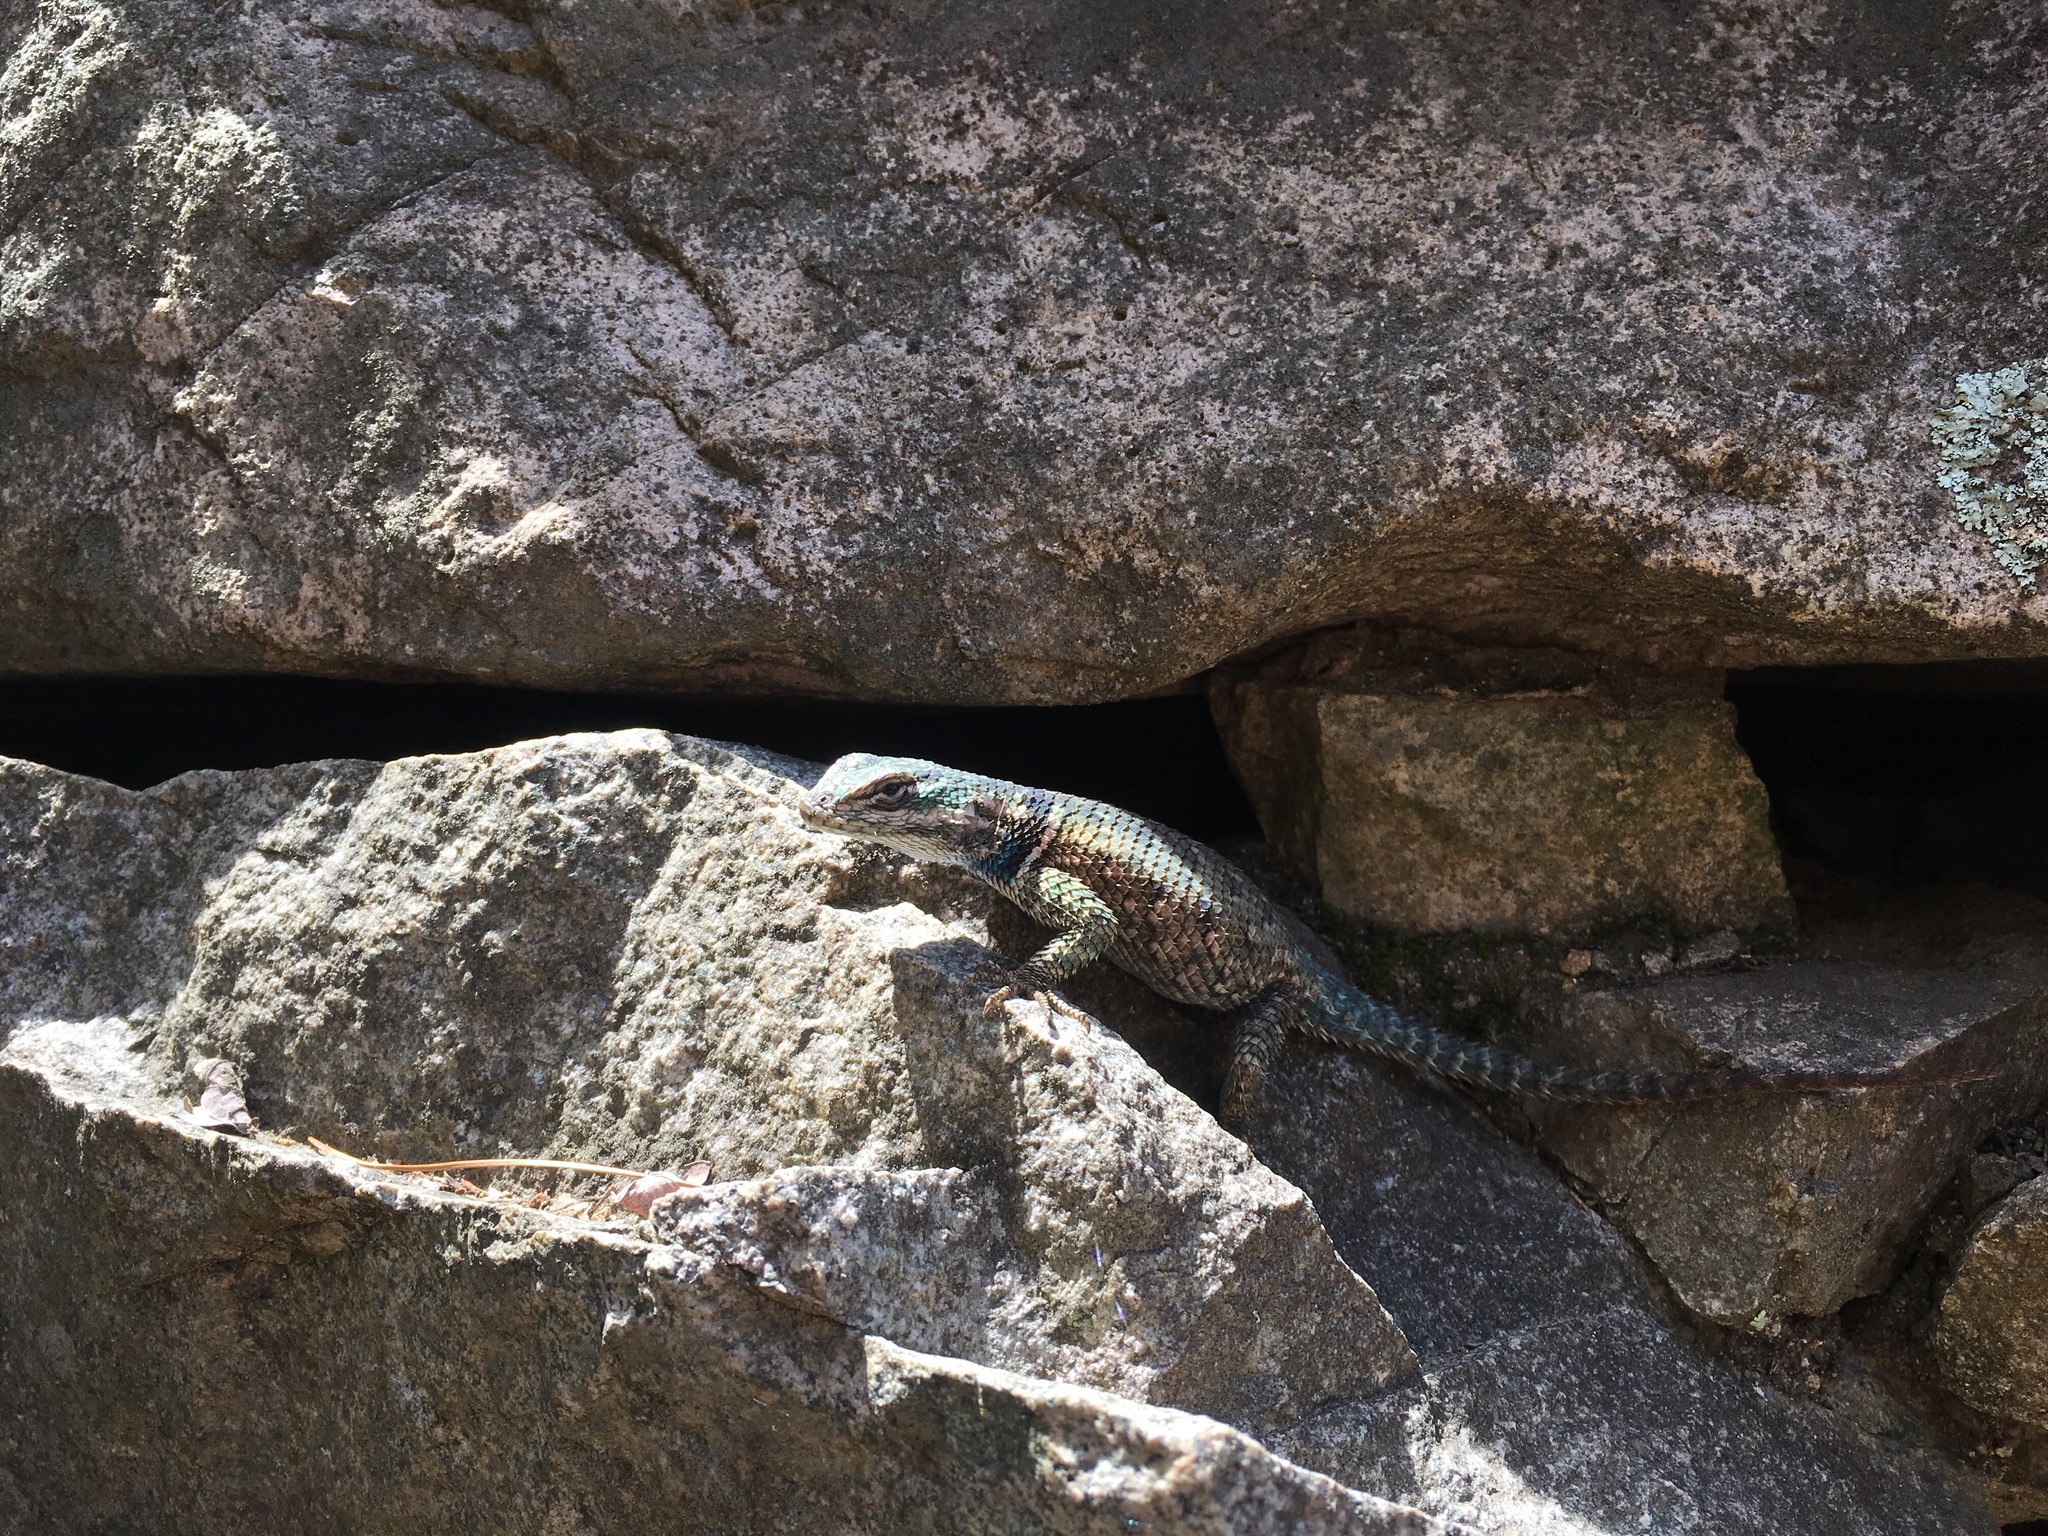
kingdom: Animalia
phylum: Chordata
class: Squamata
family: Phrynosomatidae
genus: Sceloporus
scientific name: Sceloporus jarrovii
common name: Yarrow's spiny lizard
